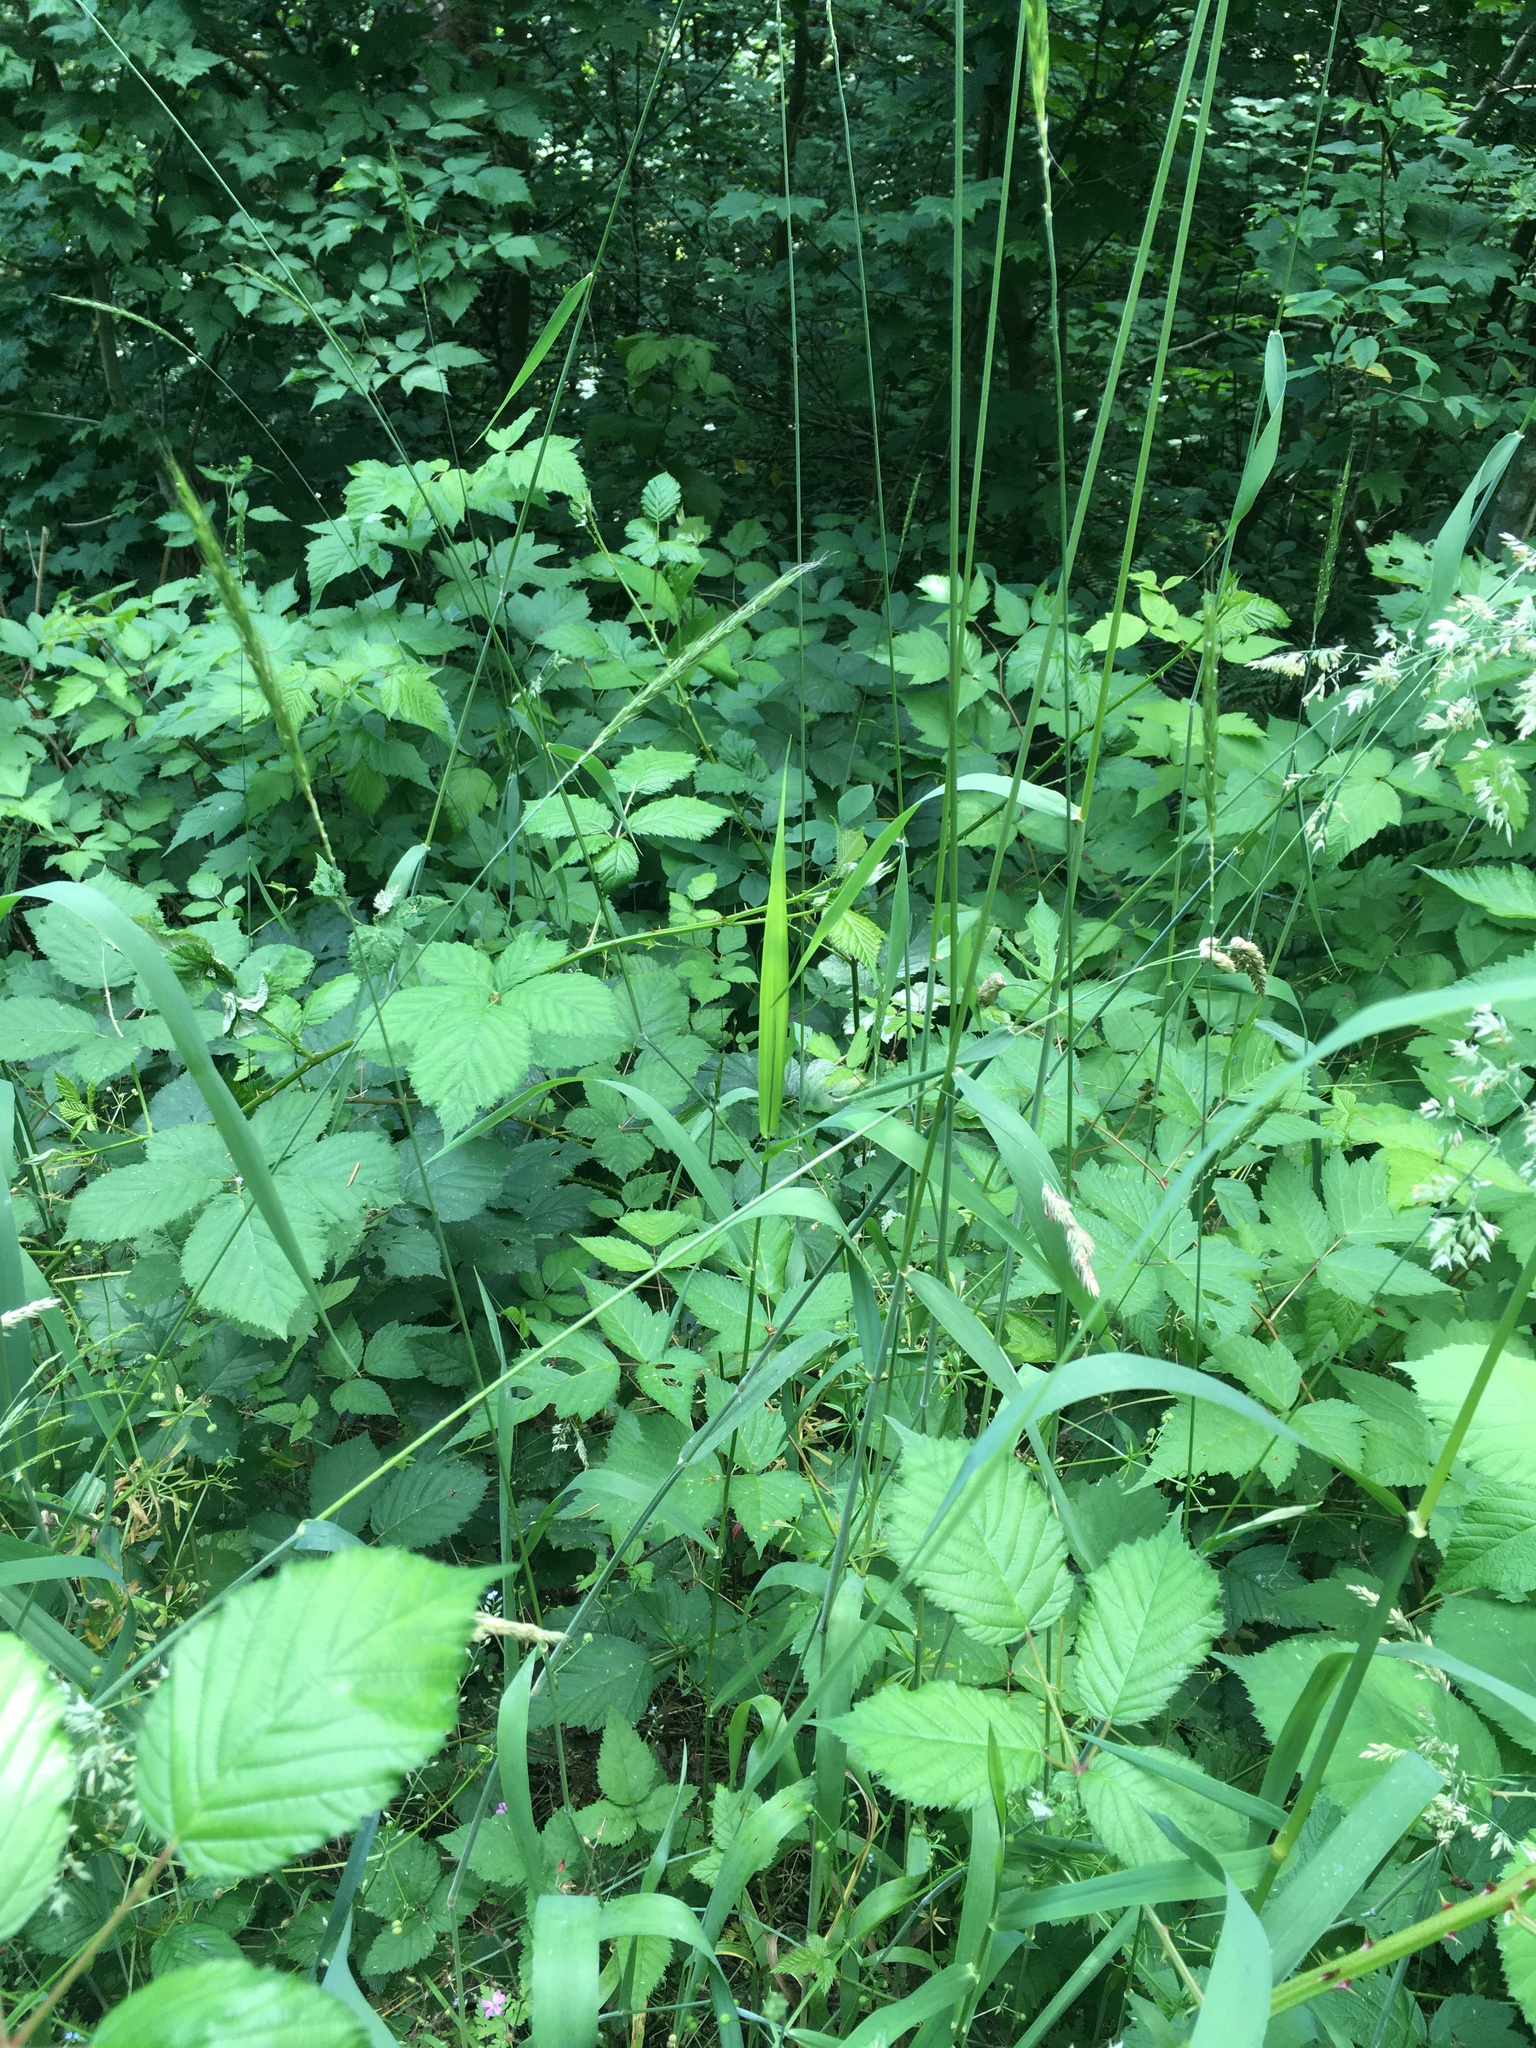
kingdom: Plantae
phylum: Tracheophyta
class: Liliopsida
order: Poales
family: Poaceae
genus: Elymus
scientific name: Elymus glaucus
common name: Blue wild rye
